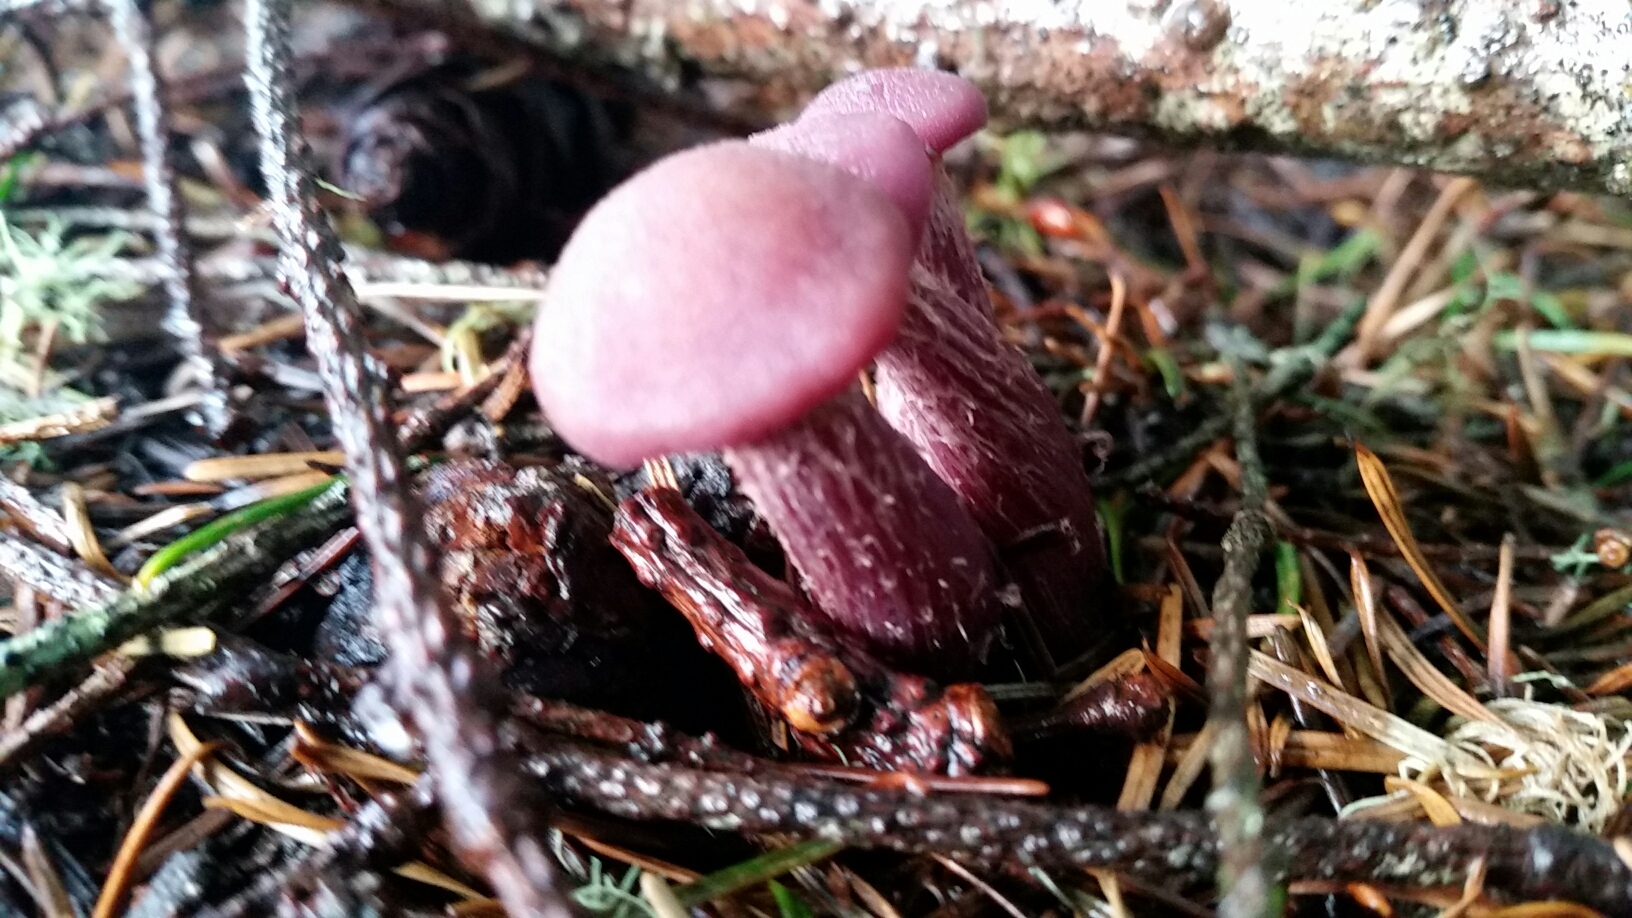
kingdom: Fungi
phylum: Basidiomycota
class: Agaricomycetes
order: Agaricales
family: Hydnangiaceae
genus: Laccaria
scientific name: Laccaria amethysteo-occidentalis
